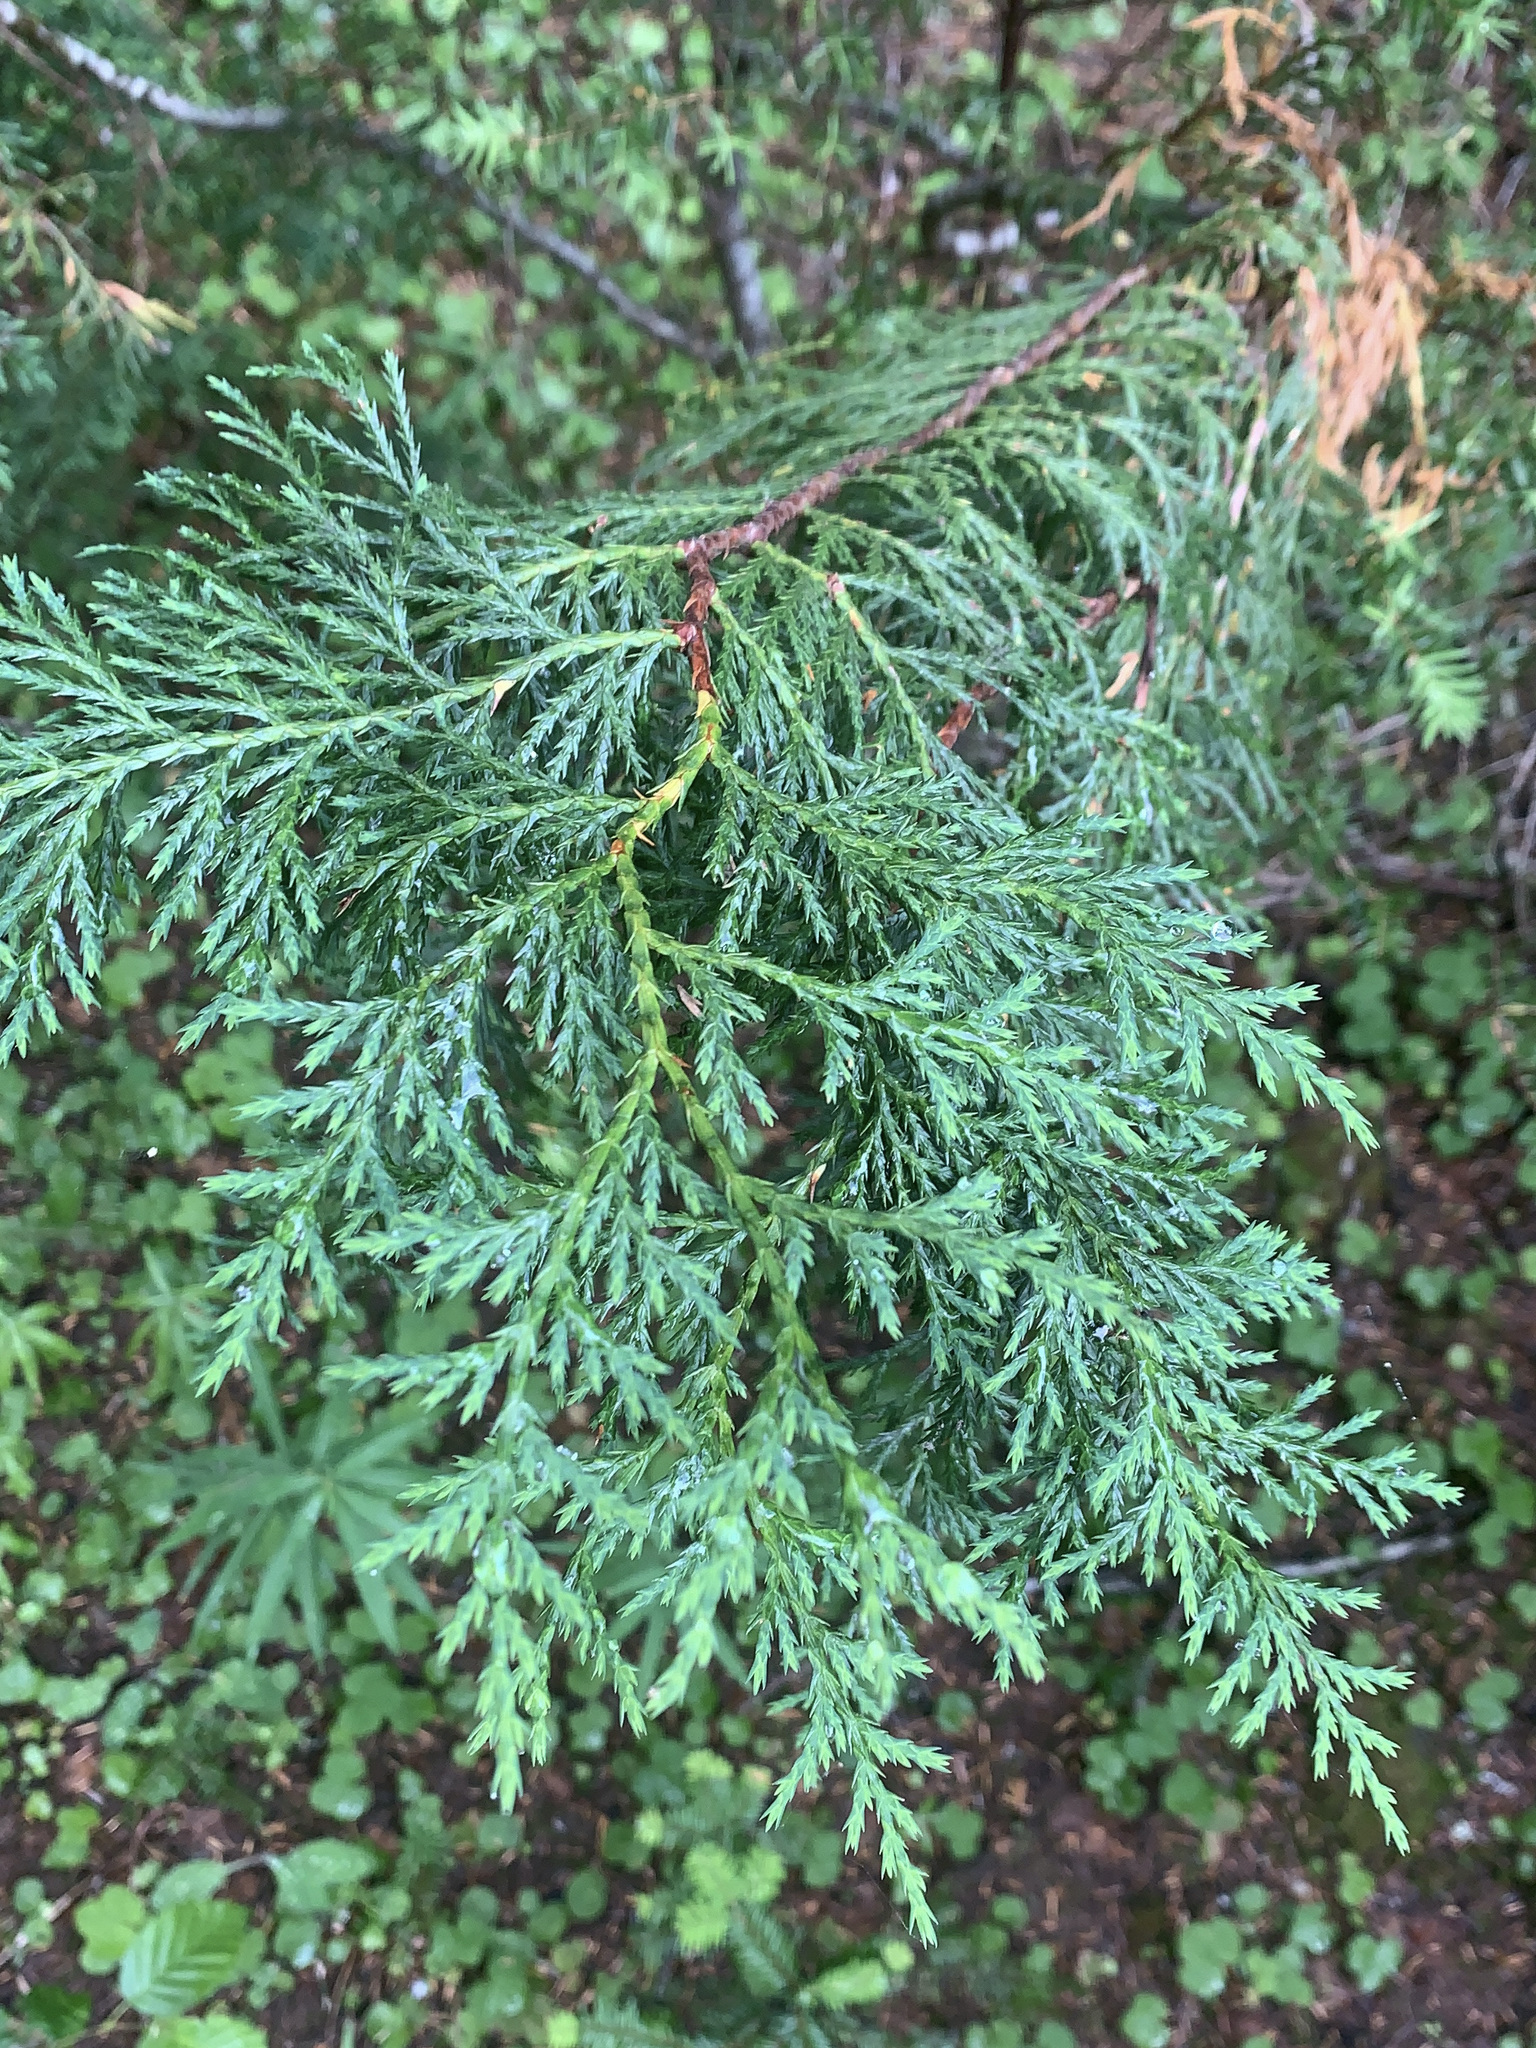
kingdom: Plantae
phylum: Tracheophyta
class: Pinopsida
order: Pinales
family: Cupressaceae
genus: Xanthocyparis
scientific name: Xanthocyparis nootkatensis
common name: Nootka cypress
